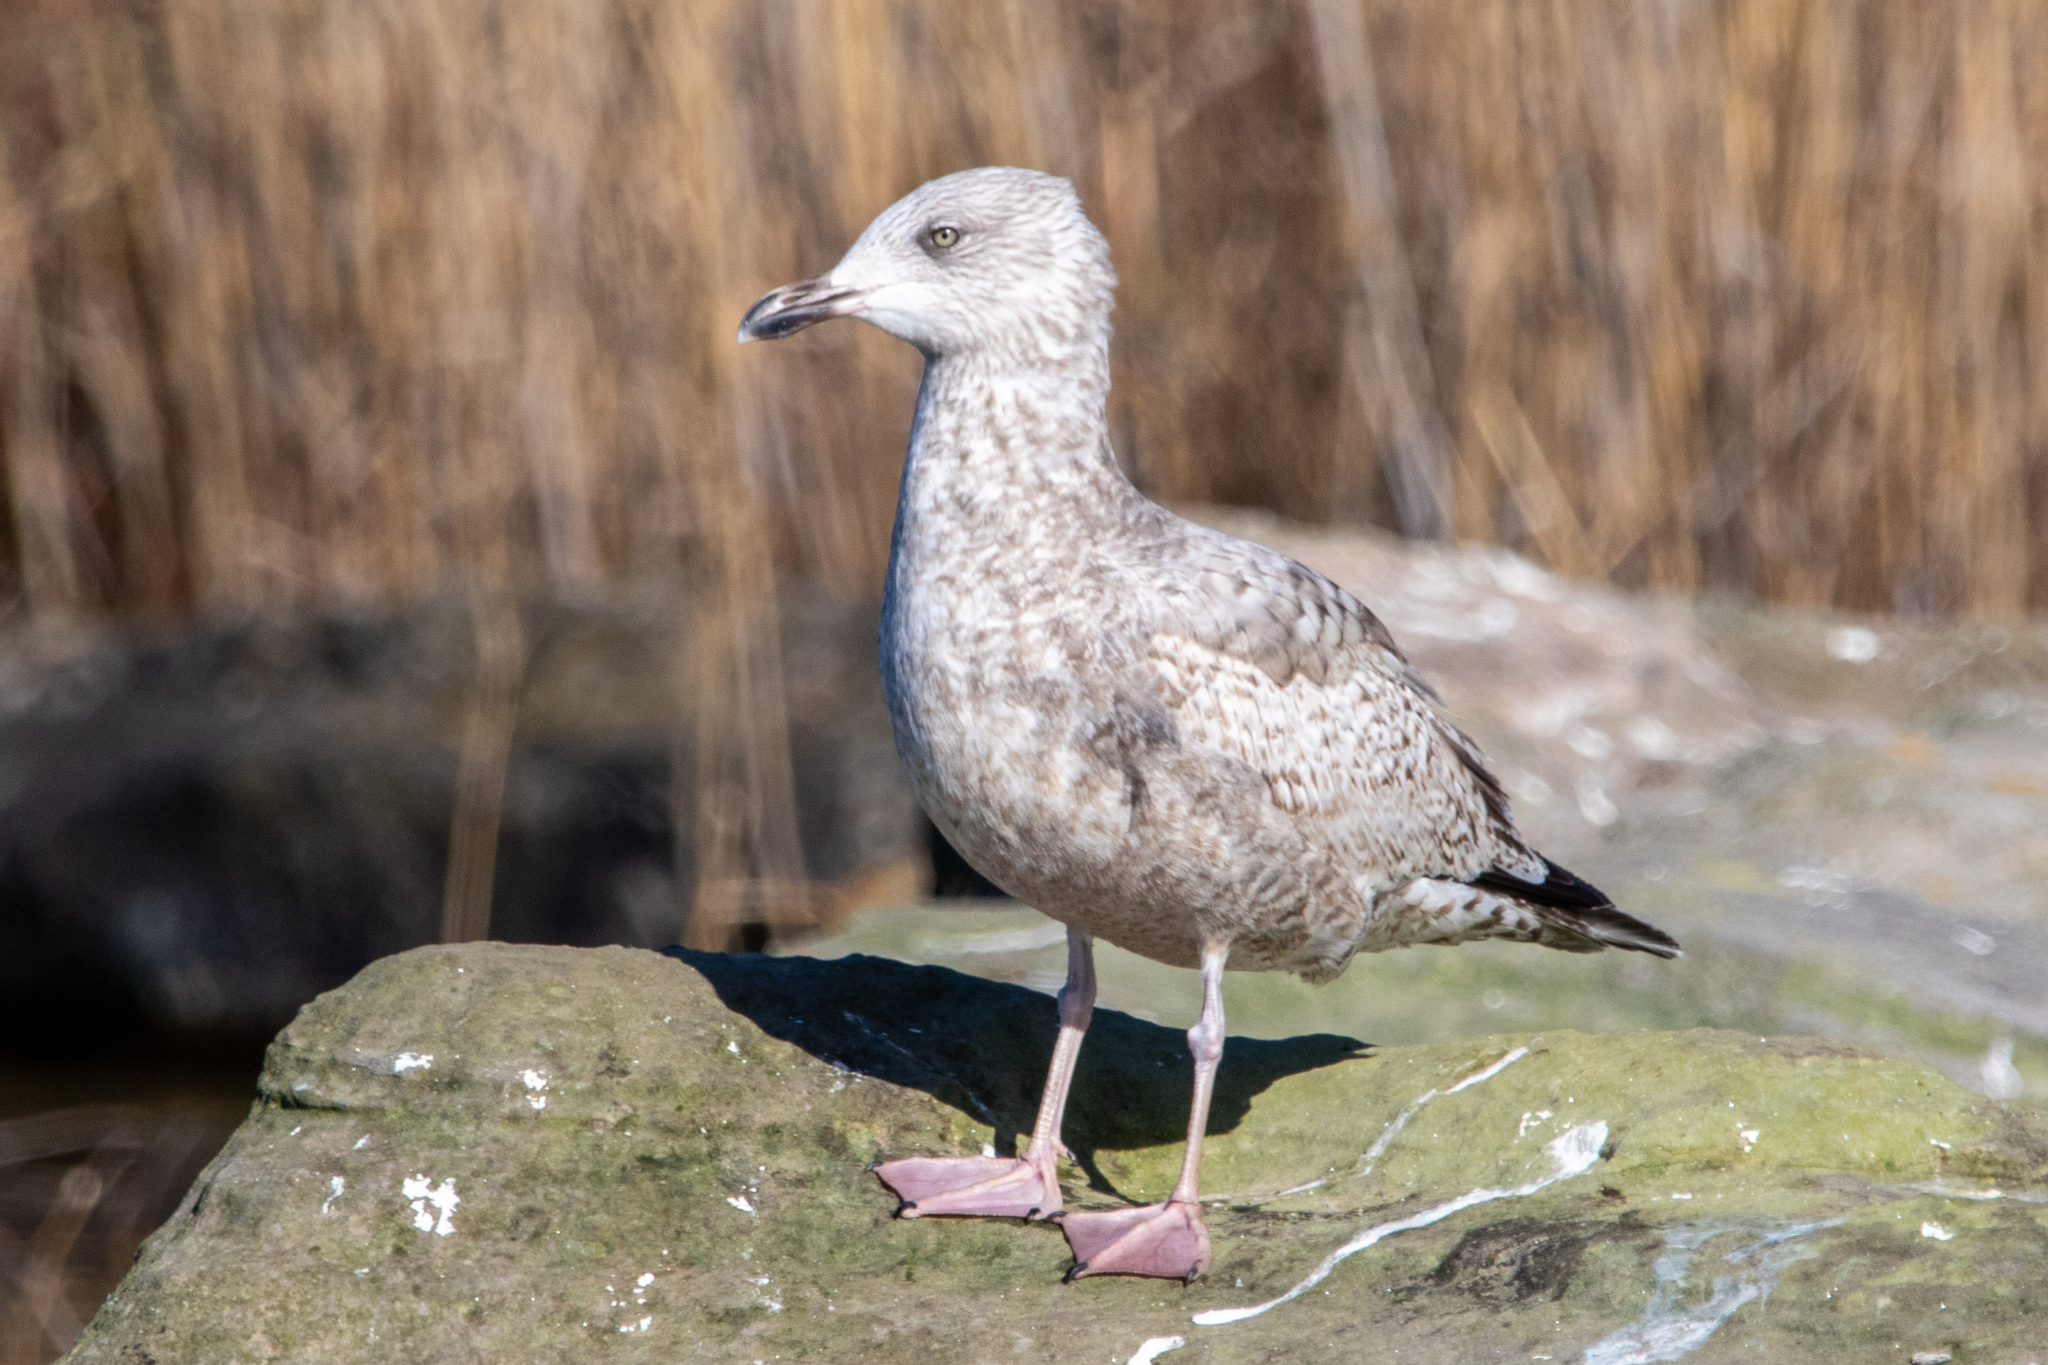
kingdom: Animalia
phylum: Chordata
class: Aves
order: Charadriiformes
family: Laridae
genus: Larus
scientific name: Larus argentatus
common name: Herring gull
